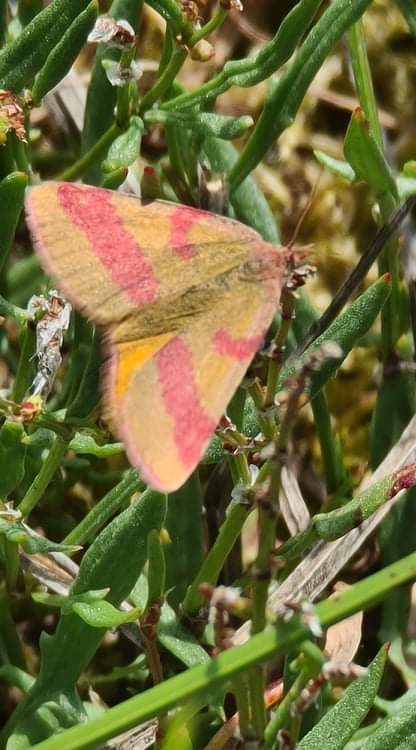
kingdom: Animalia
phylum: Arthropoda
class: Insecta
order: Lepidoptera
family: Geometridae
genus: Lythria
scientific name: Lythria cruentaria
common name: Purple-barred yellow
